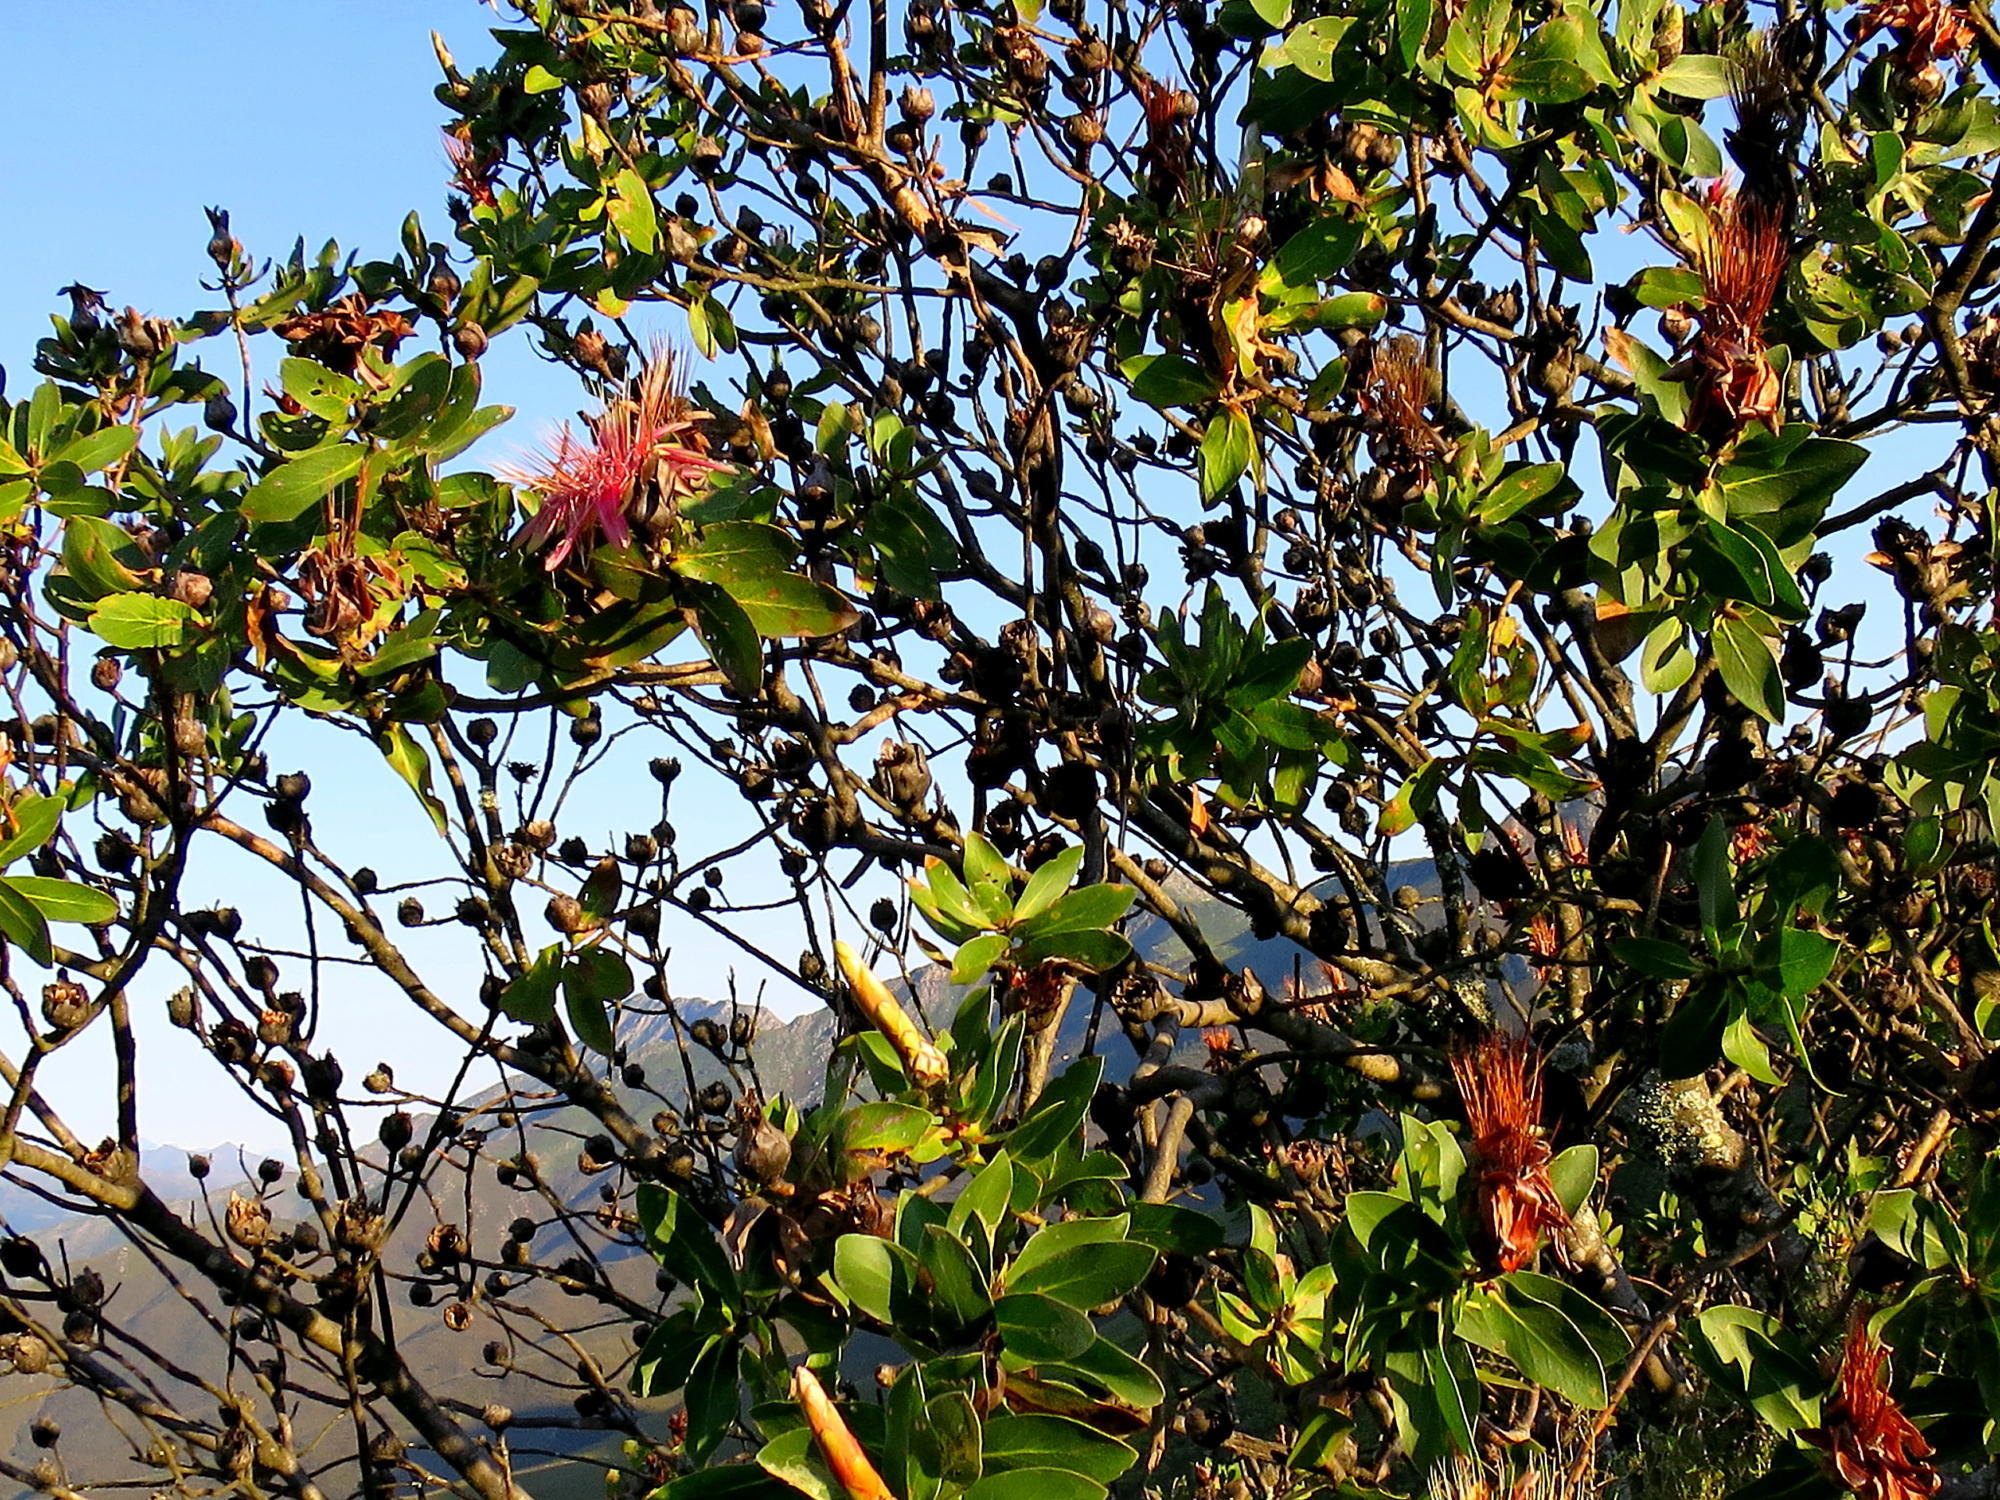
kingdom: Plantae
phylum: Tracheophyta
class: Magnoliopsida
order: Proteales
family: Proteaceae
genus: Protea
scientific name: Protea aurea
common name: Shuttlecock sugarbush
